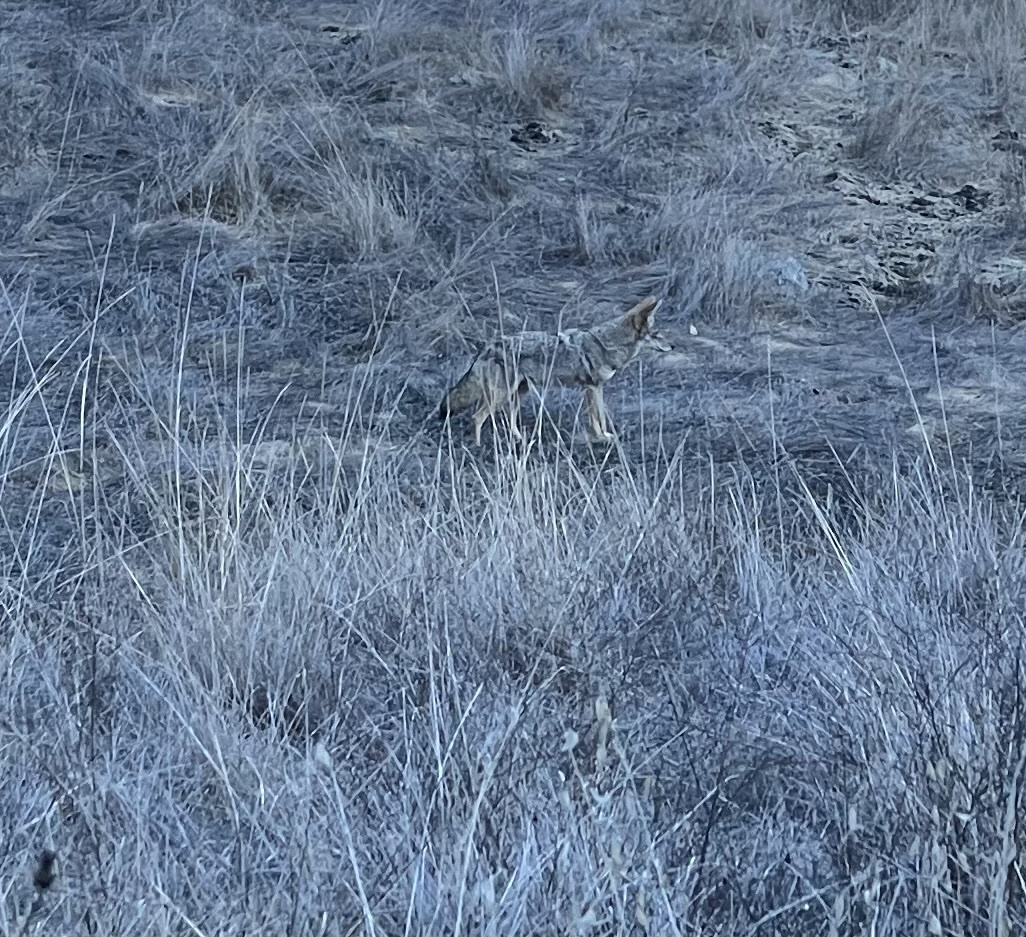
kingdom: Animalia
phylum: Chordata
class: Mammalia
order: Carnivora
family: Canidae
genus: Canis
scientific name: Canis latrans
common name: Coyote
